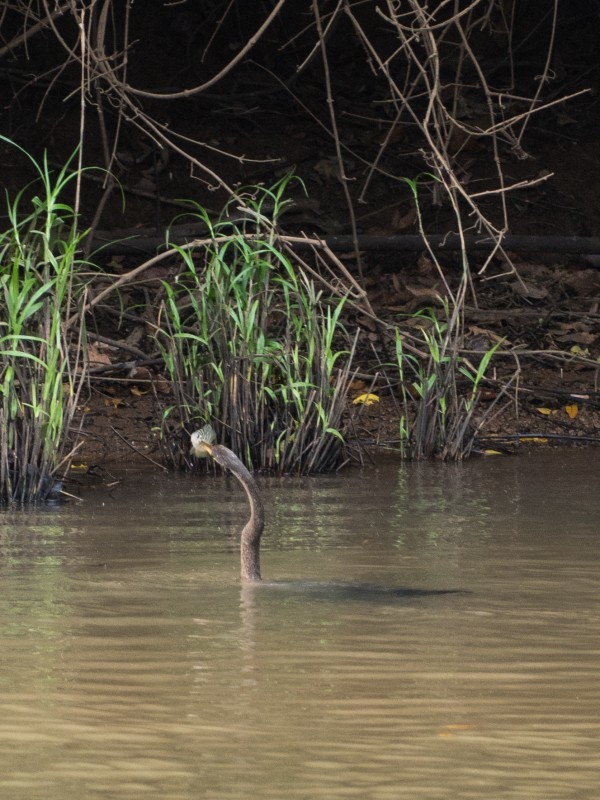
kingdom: Animalia
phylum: Chordata
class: Aves
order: Suliformes
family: Anhingidae
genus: Anhinga
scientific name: Anhinga anhinga
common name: Anhinga
